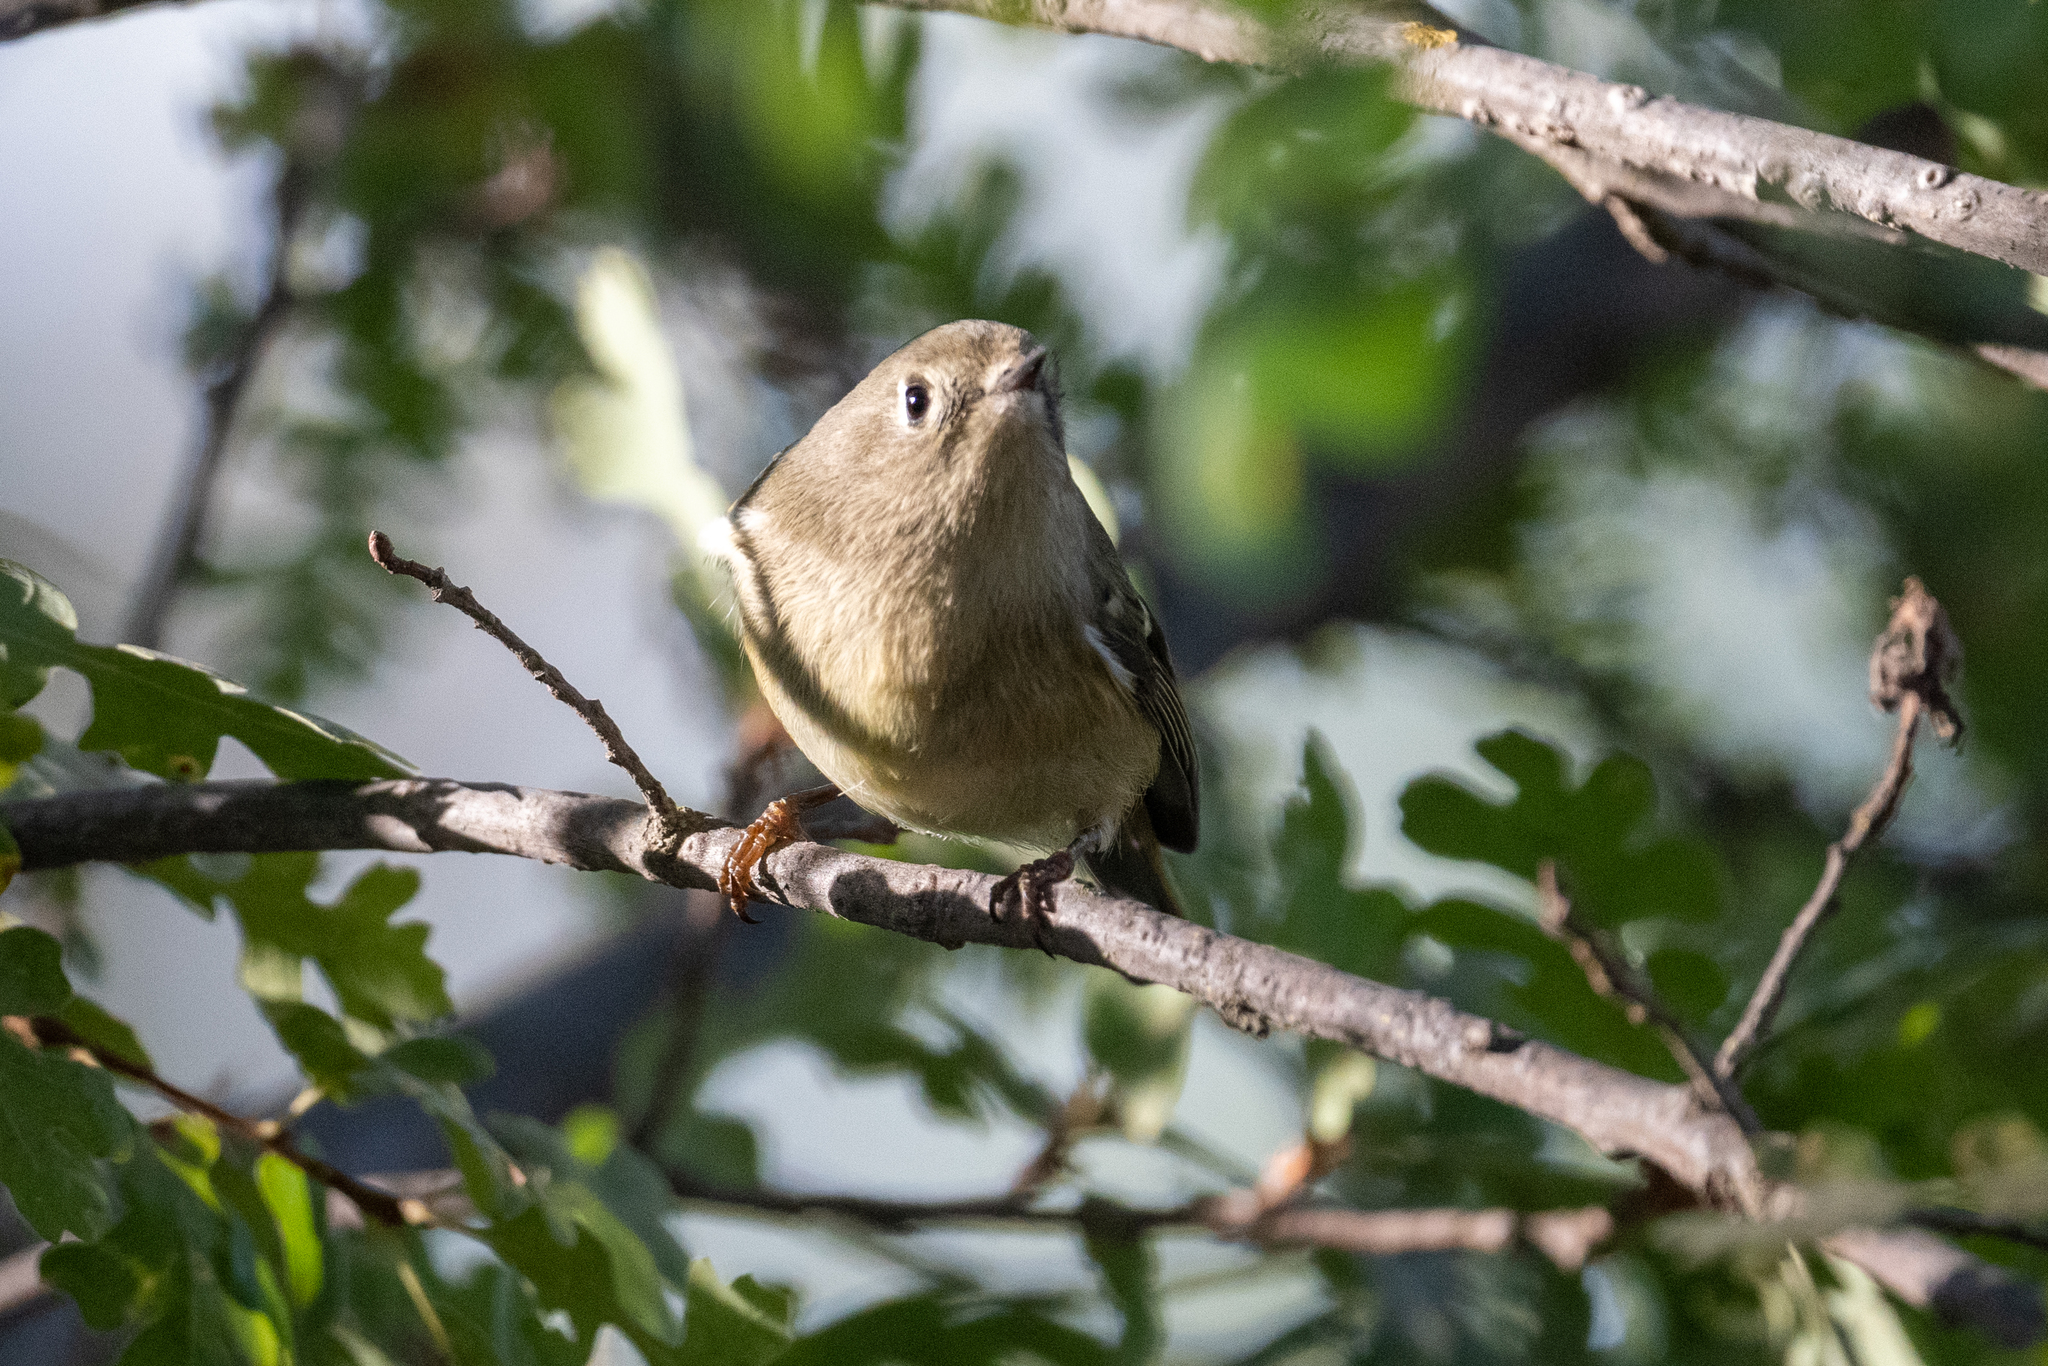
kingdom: Animalia
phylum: Chordata
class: Aves
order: Passeriformes
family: Regulidae
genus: Regulus
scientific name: Regulus calendula
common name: Ruby-crowned kinglet
